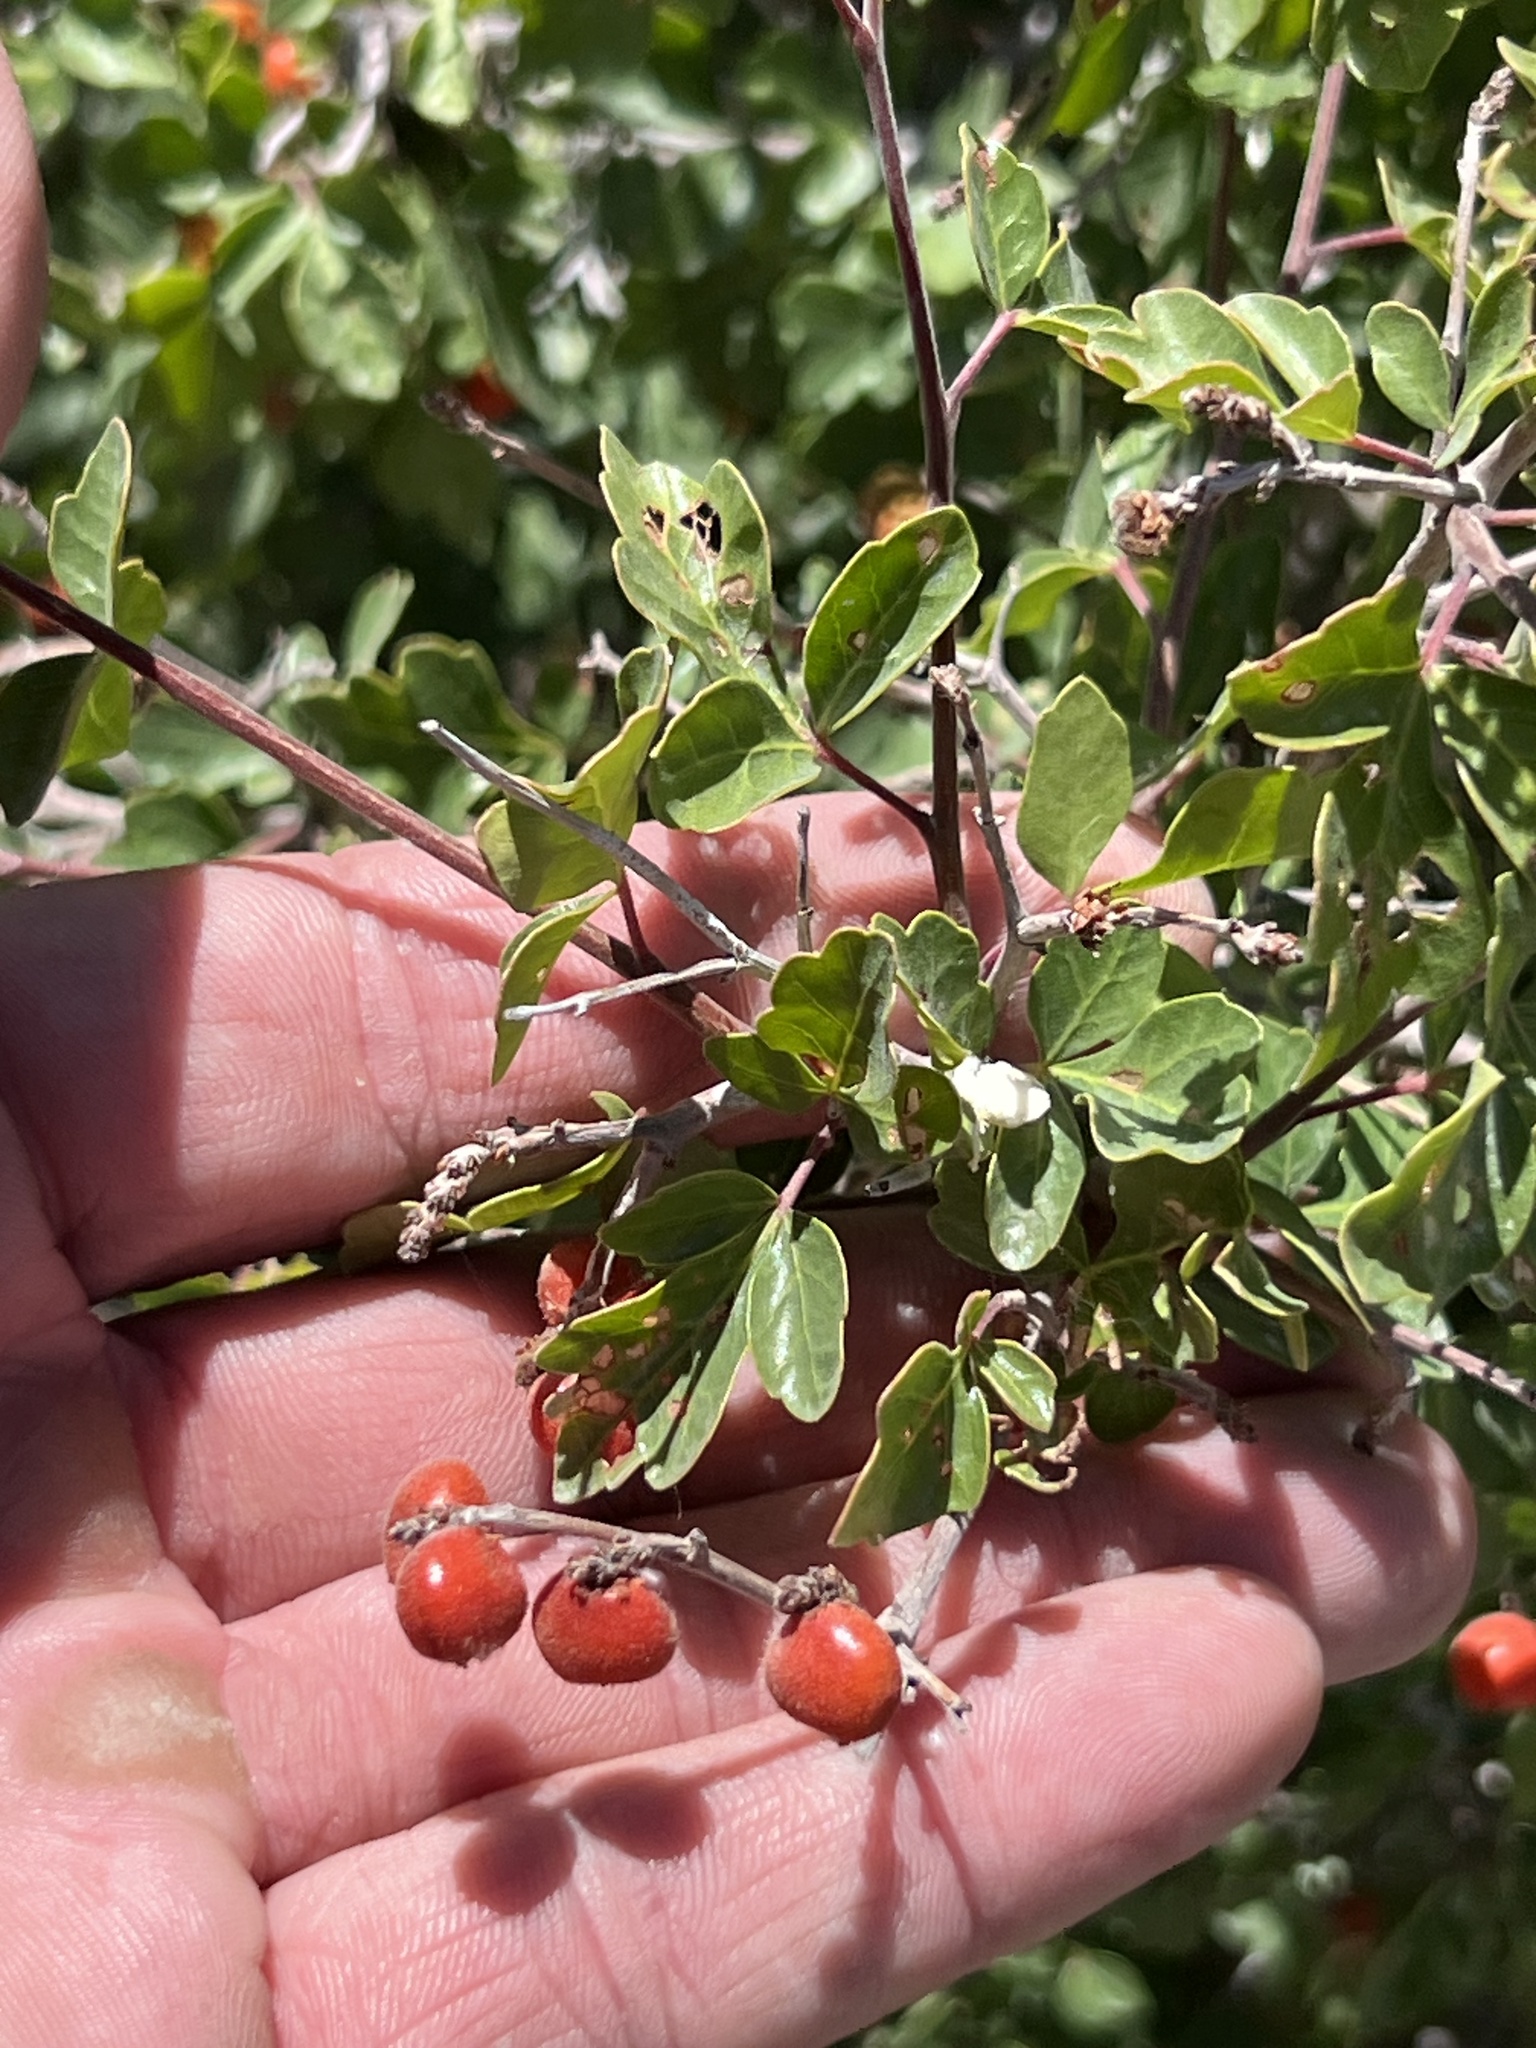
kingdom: Plantae
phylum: Tracheophyta
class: Magnoliopsida
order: Sapindales
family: Anacardiaceae
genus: Rhus
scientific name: Rhus trilobata
